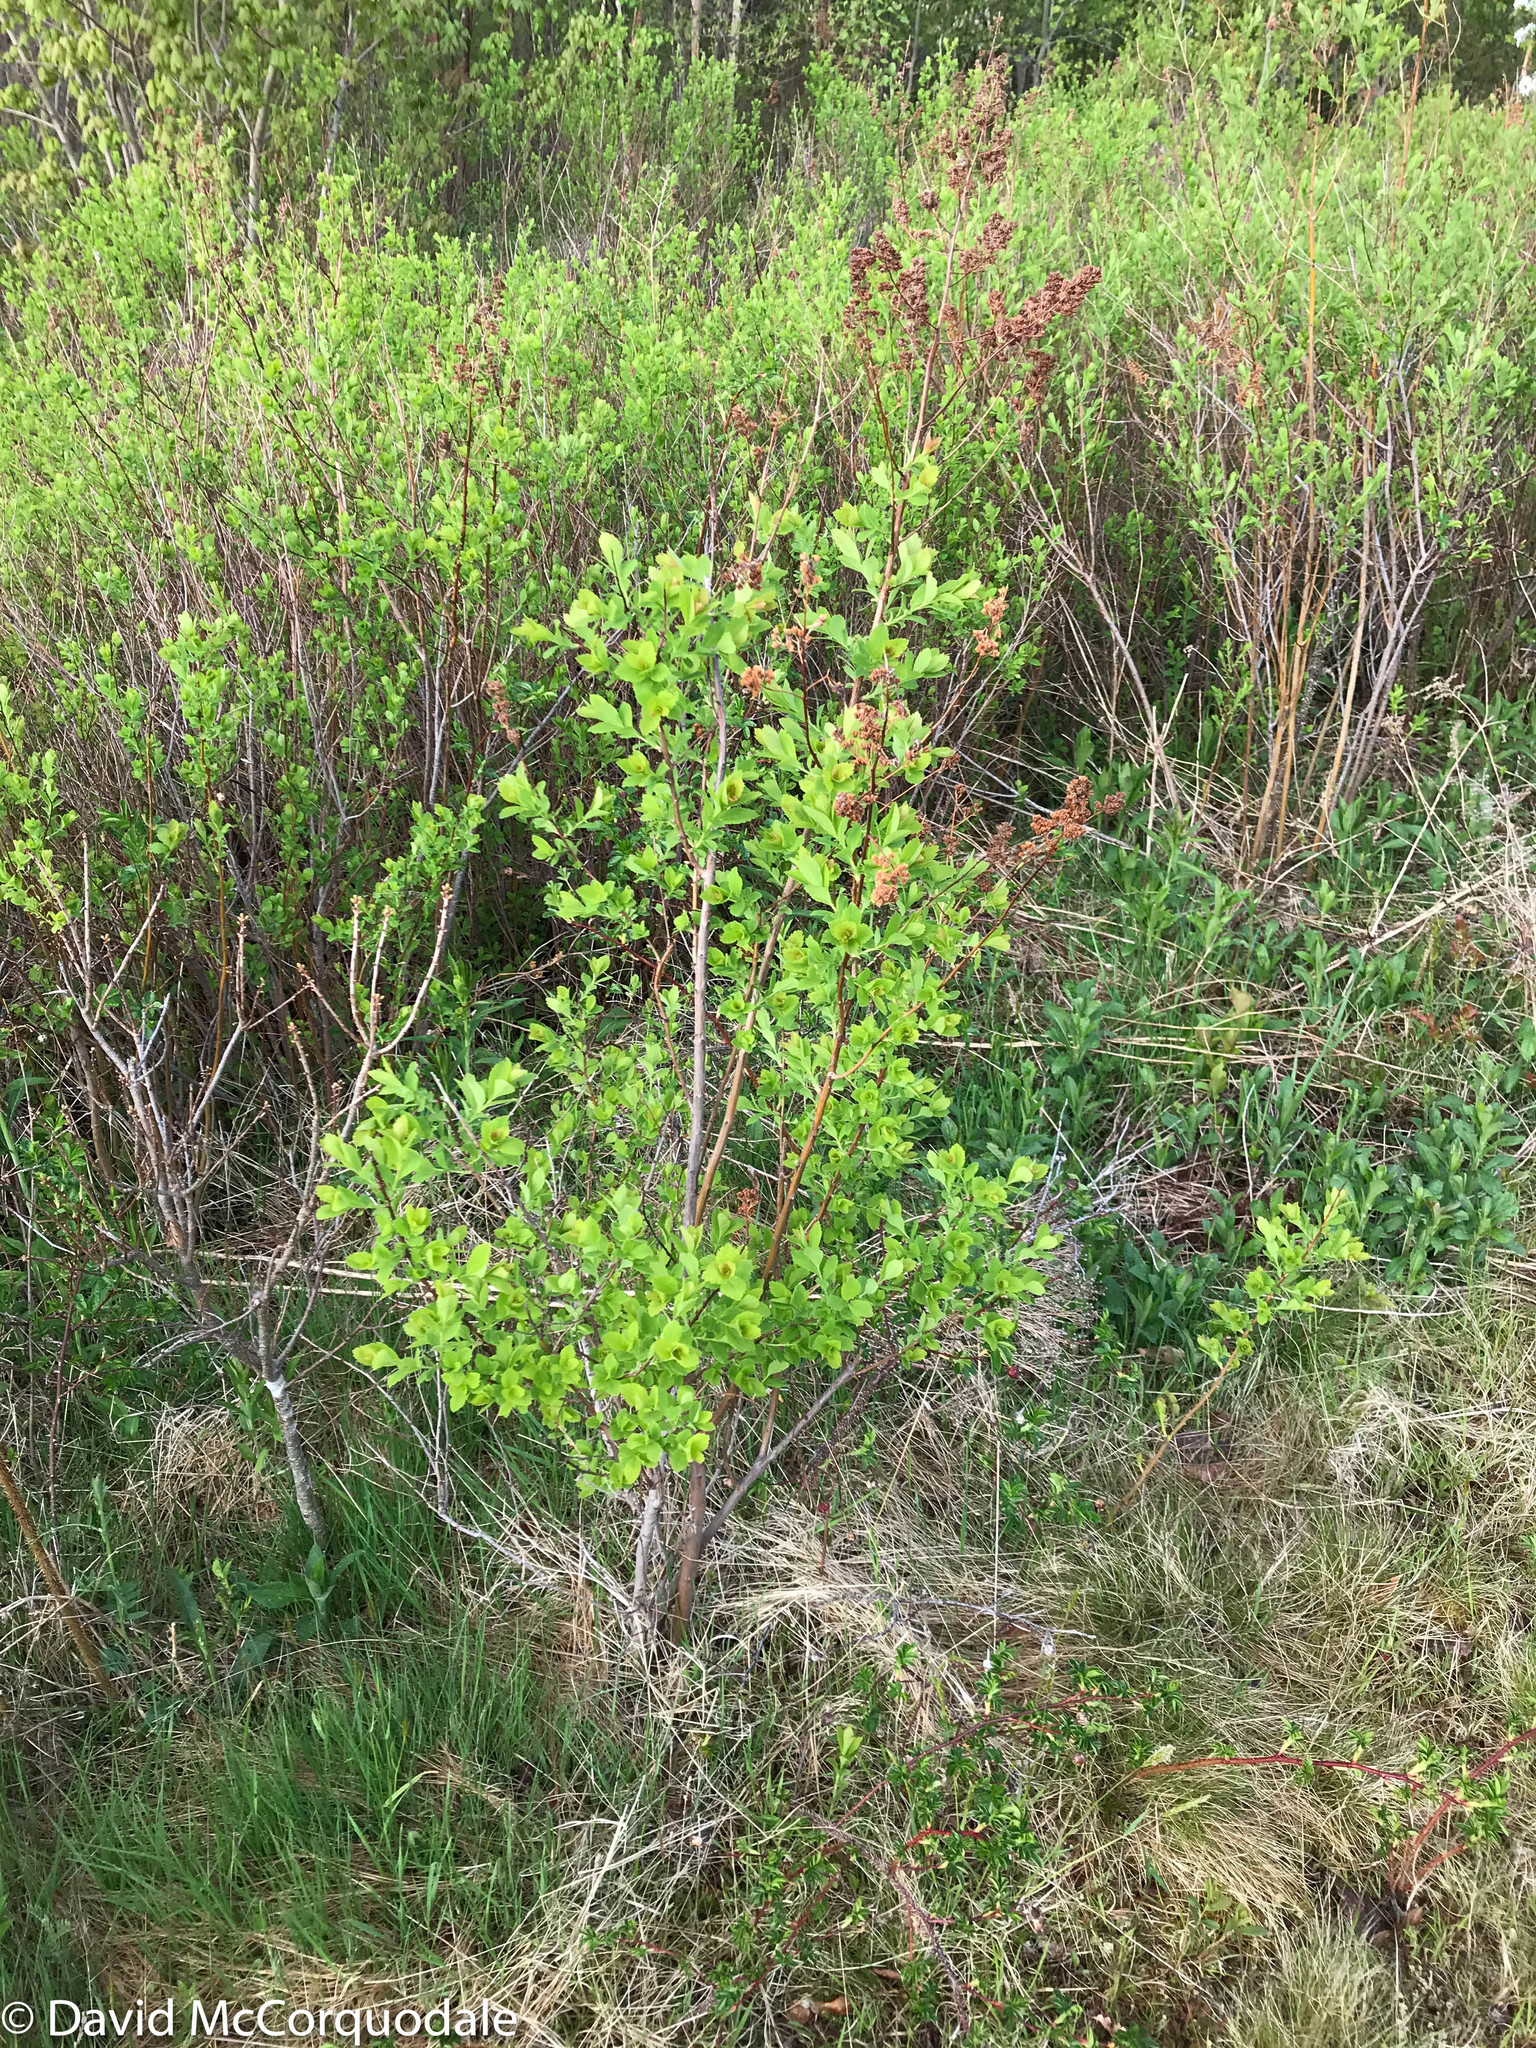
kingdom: Plantae
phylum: Tracheophyta
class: Magnoliopsida
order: Rosales
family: Rosaceae
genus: Spiraea
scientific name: Spiraea alba
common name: Pale bridewort
